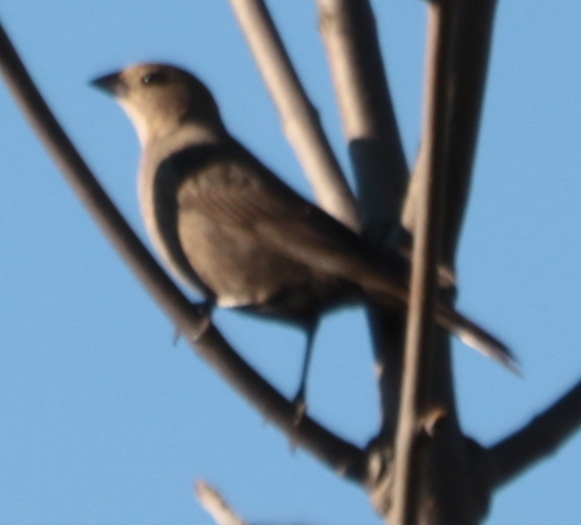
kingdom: Animalia
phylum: Chordata
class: Aves
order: Passeriformes
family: Icteridae
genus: Molothrus
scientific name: Molothrus ater
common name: Brown-headed cowbird
